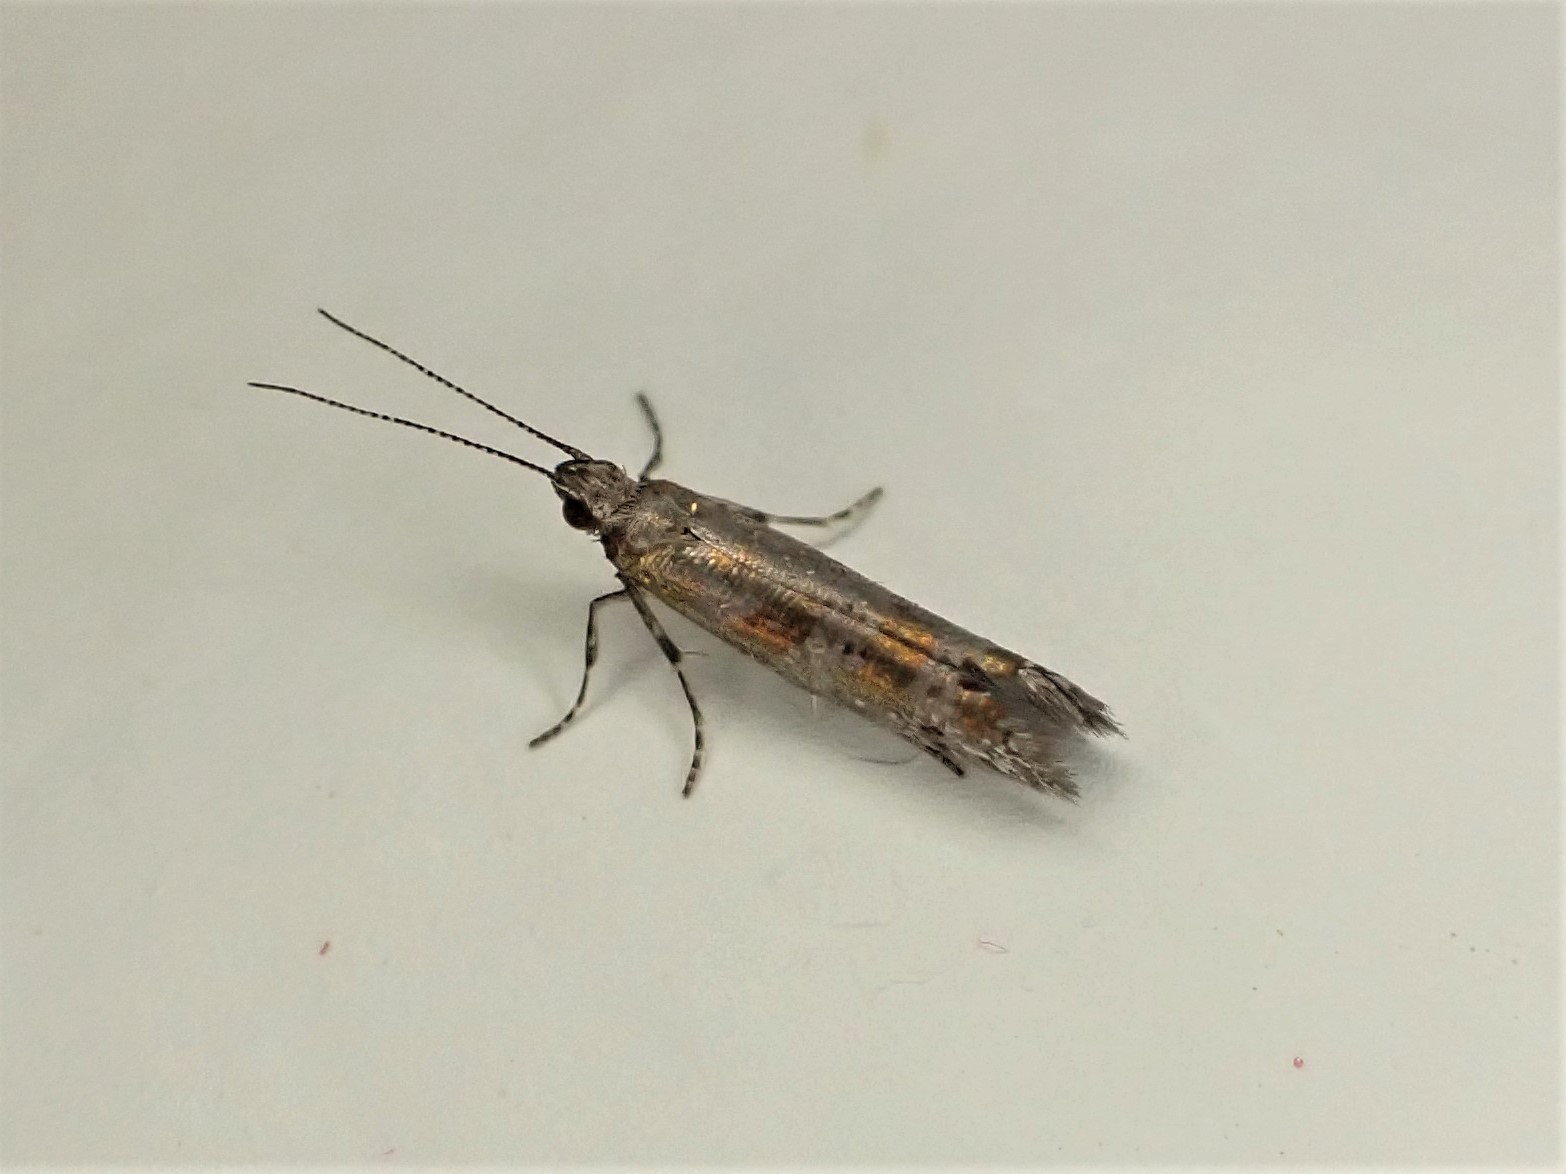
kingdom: Animalia
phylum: Arthropoda
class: Insecta
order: Lepidoptera
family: Glyphipterigidae
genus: Chrysorthenches
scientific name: Chrysorthenches drosochalca
